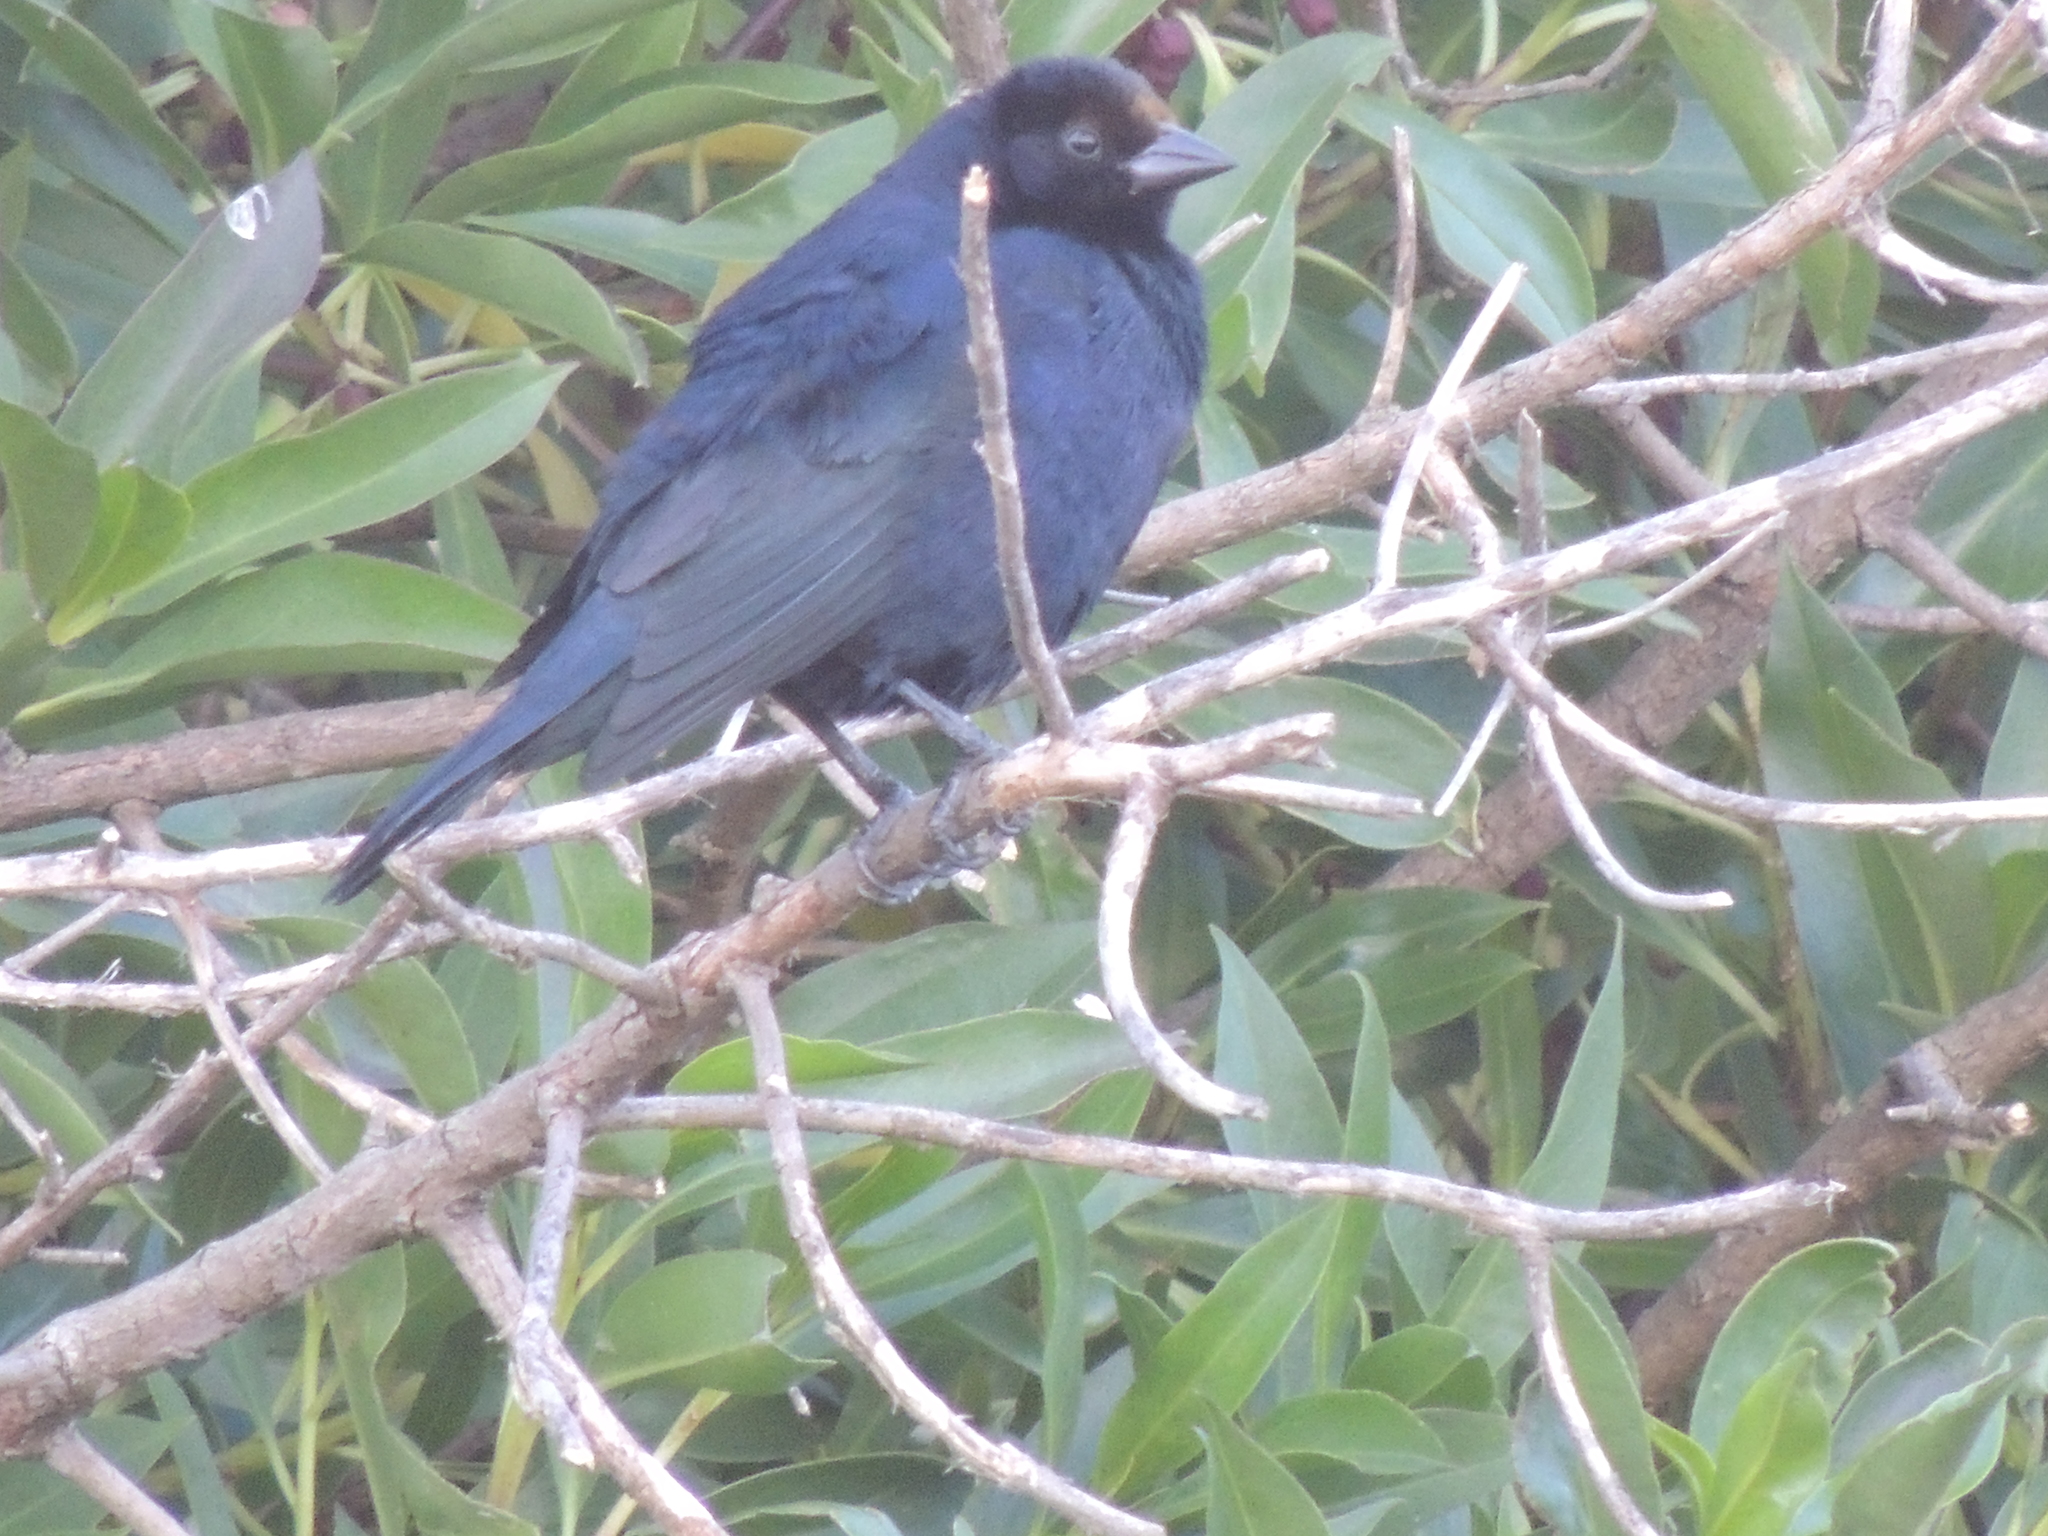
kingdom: Animalia
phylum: Chordata
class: Aves
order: Passeriformes
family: Icteridae
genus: Molothrus
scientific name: Molothrus bonariensis
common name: Shiny cowbird
